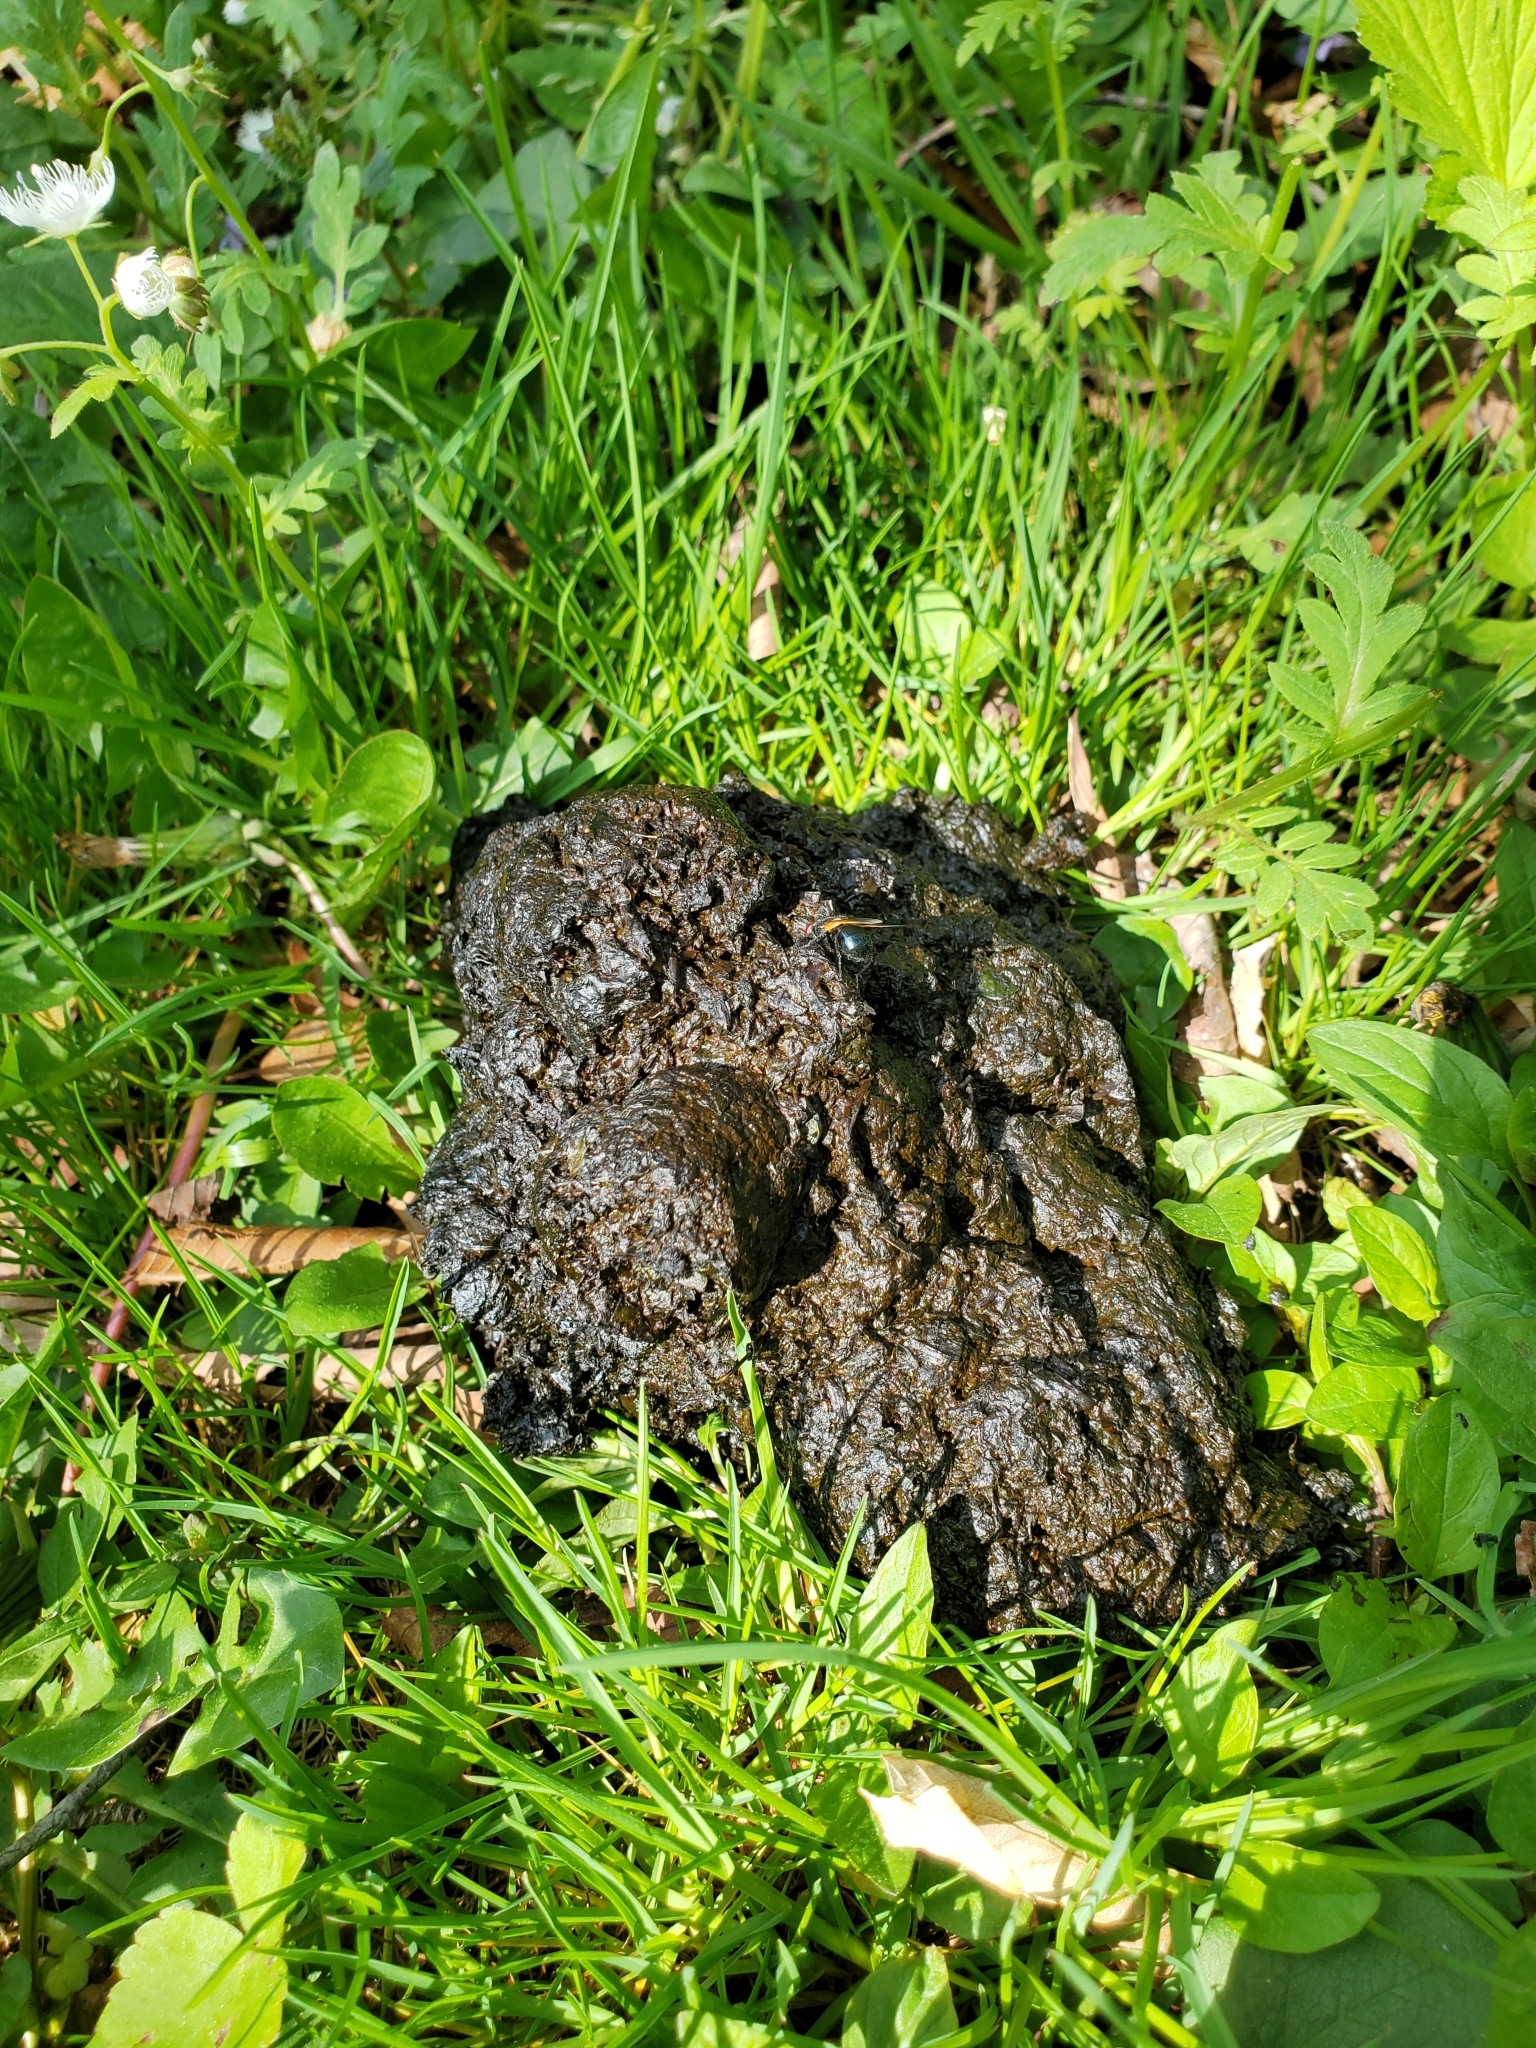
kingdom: Animalia
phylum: Chordata
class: Mammalia
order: Carnivora
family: Ursidae
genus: Ursus
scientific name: Ursus americanus
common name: American black bear
